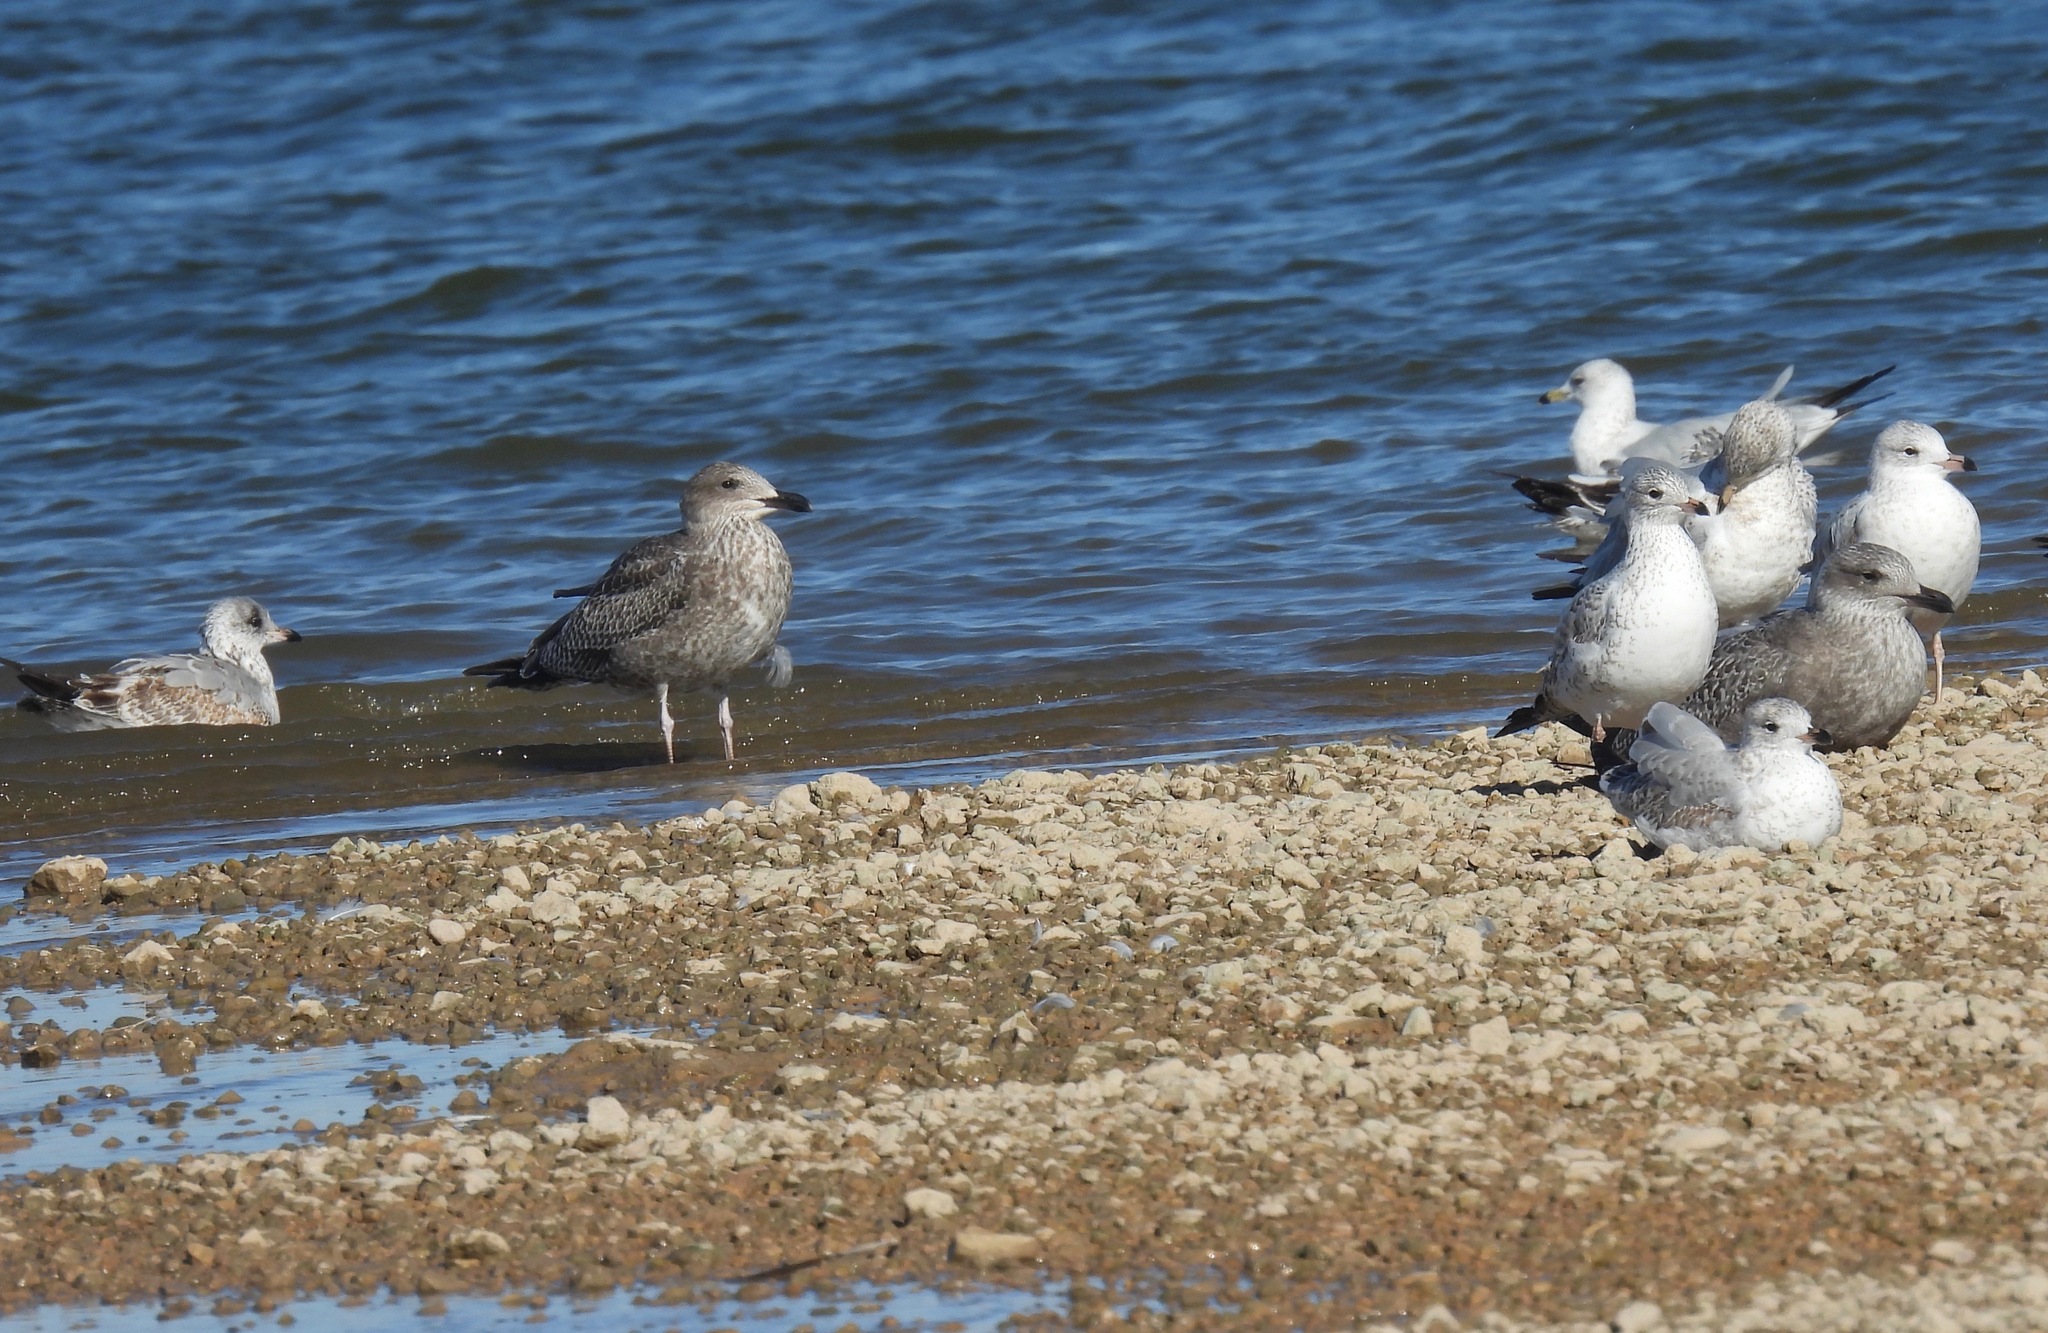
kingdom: Animalia
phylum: Chordata
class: Aves
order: Charadriiformes
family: Laridae
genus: Larus
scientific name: Larus argentatus
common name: Herring gull
